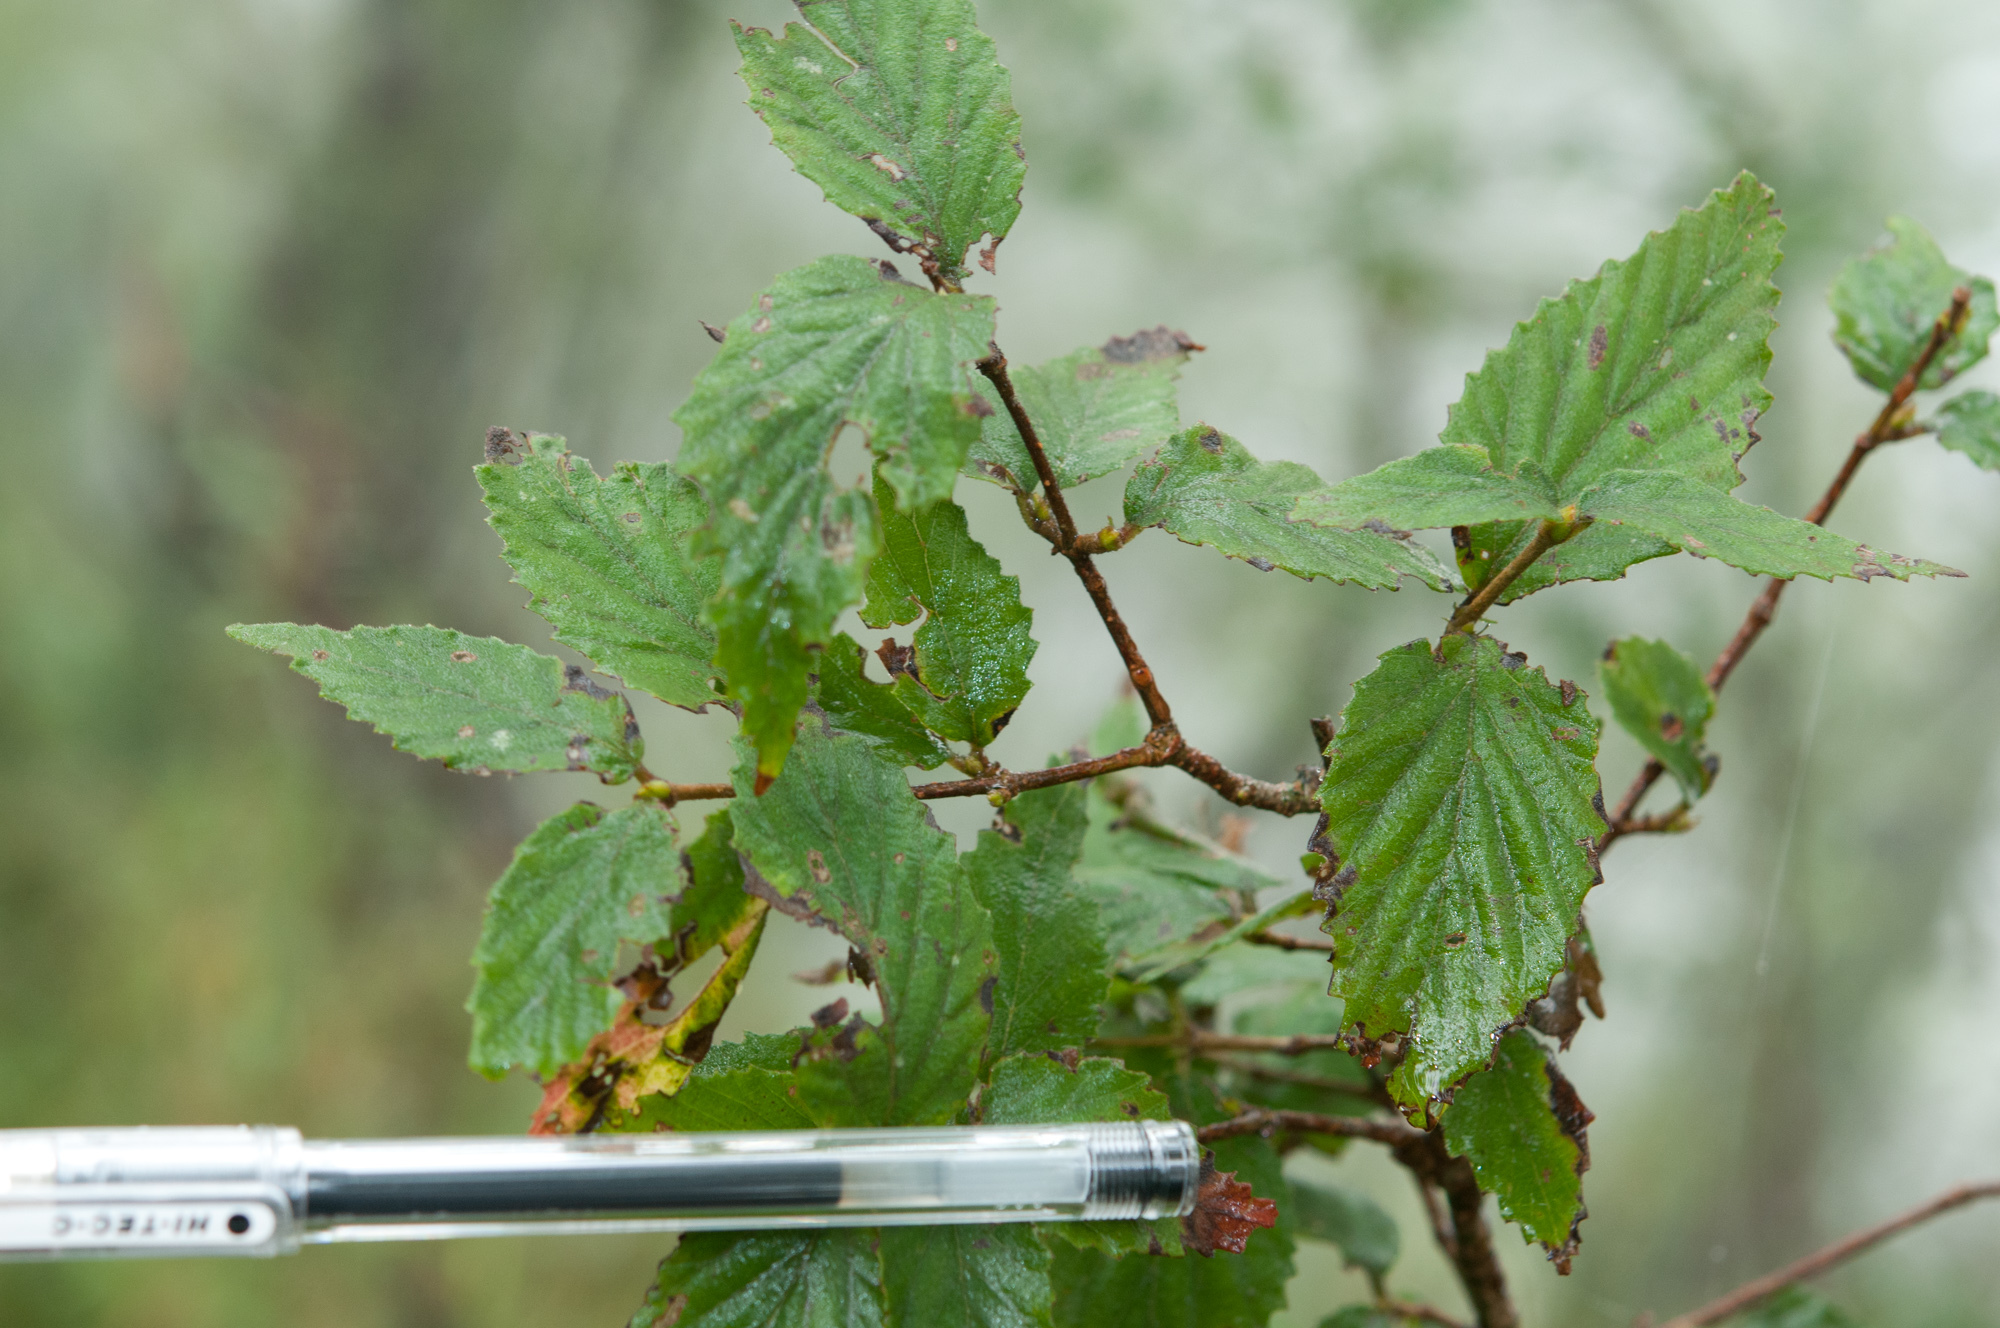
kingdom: Plantae
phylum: Tracheophyta
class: Magnoliopsida
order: Dipsacales
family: Viburnaceae
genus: Viburnum
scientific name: Viburnum erosum
